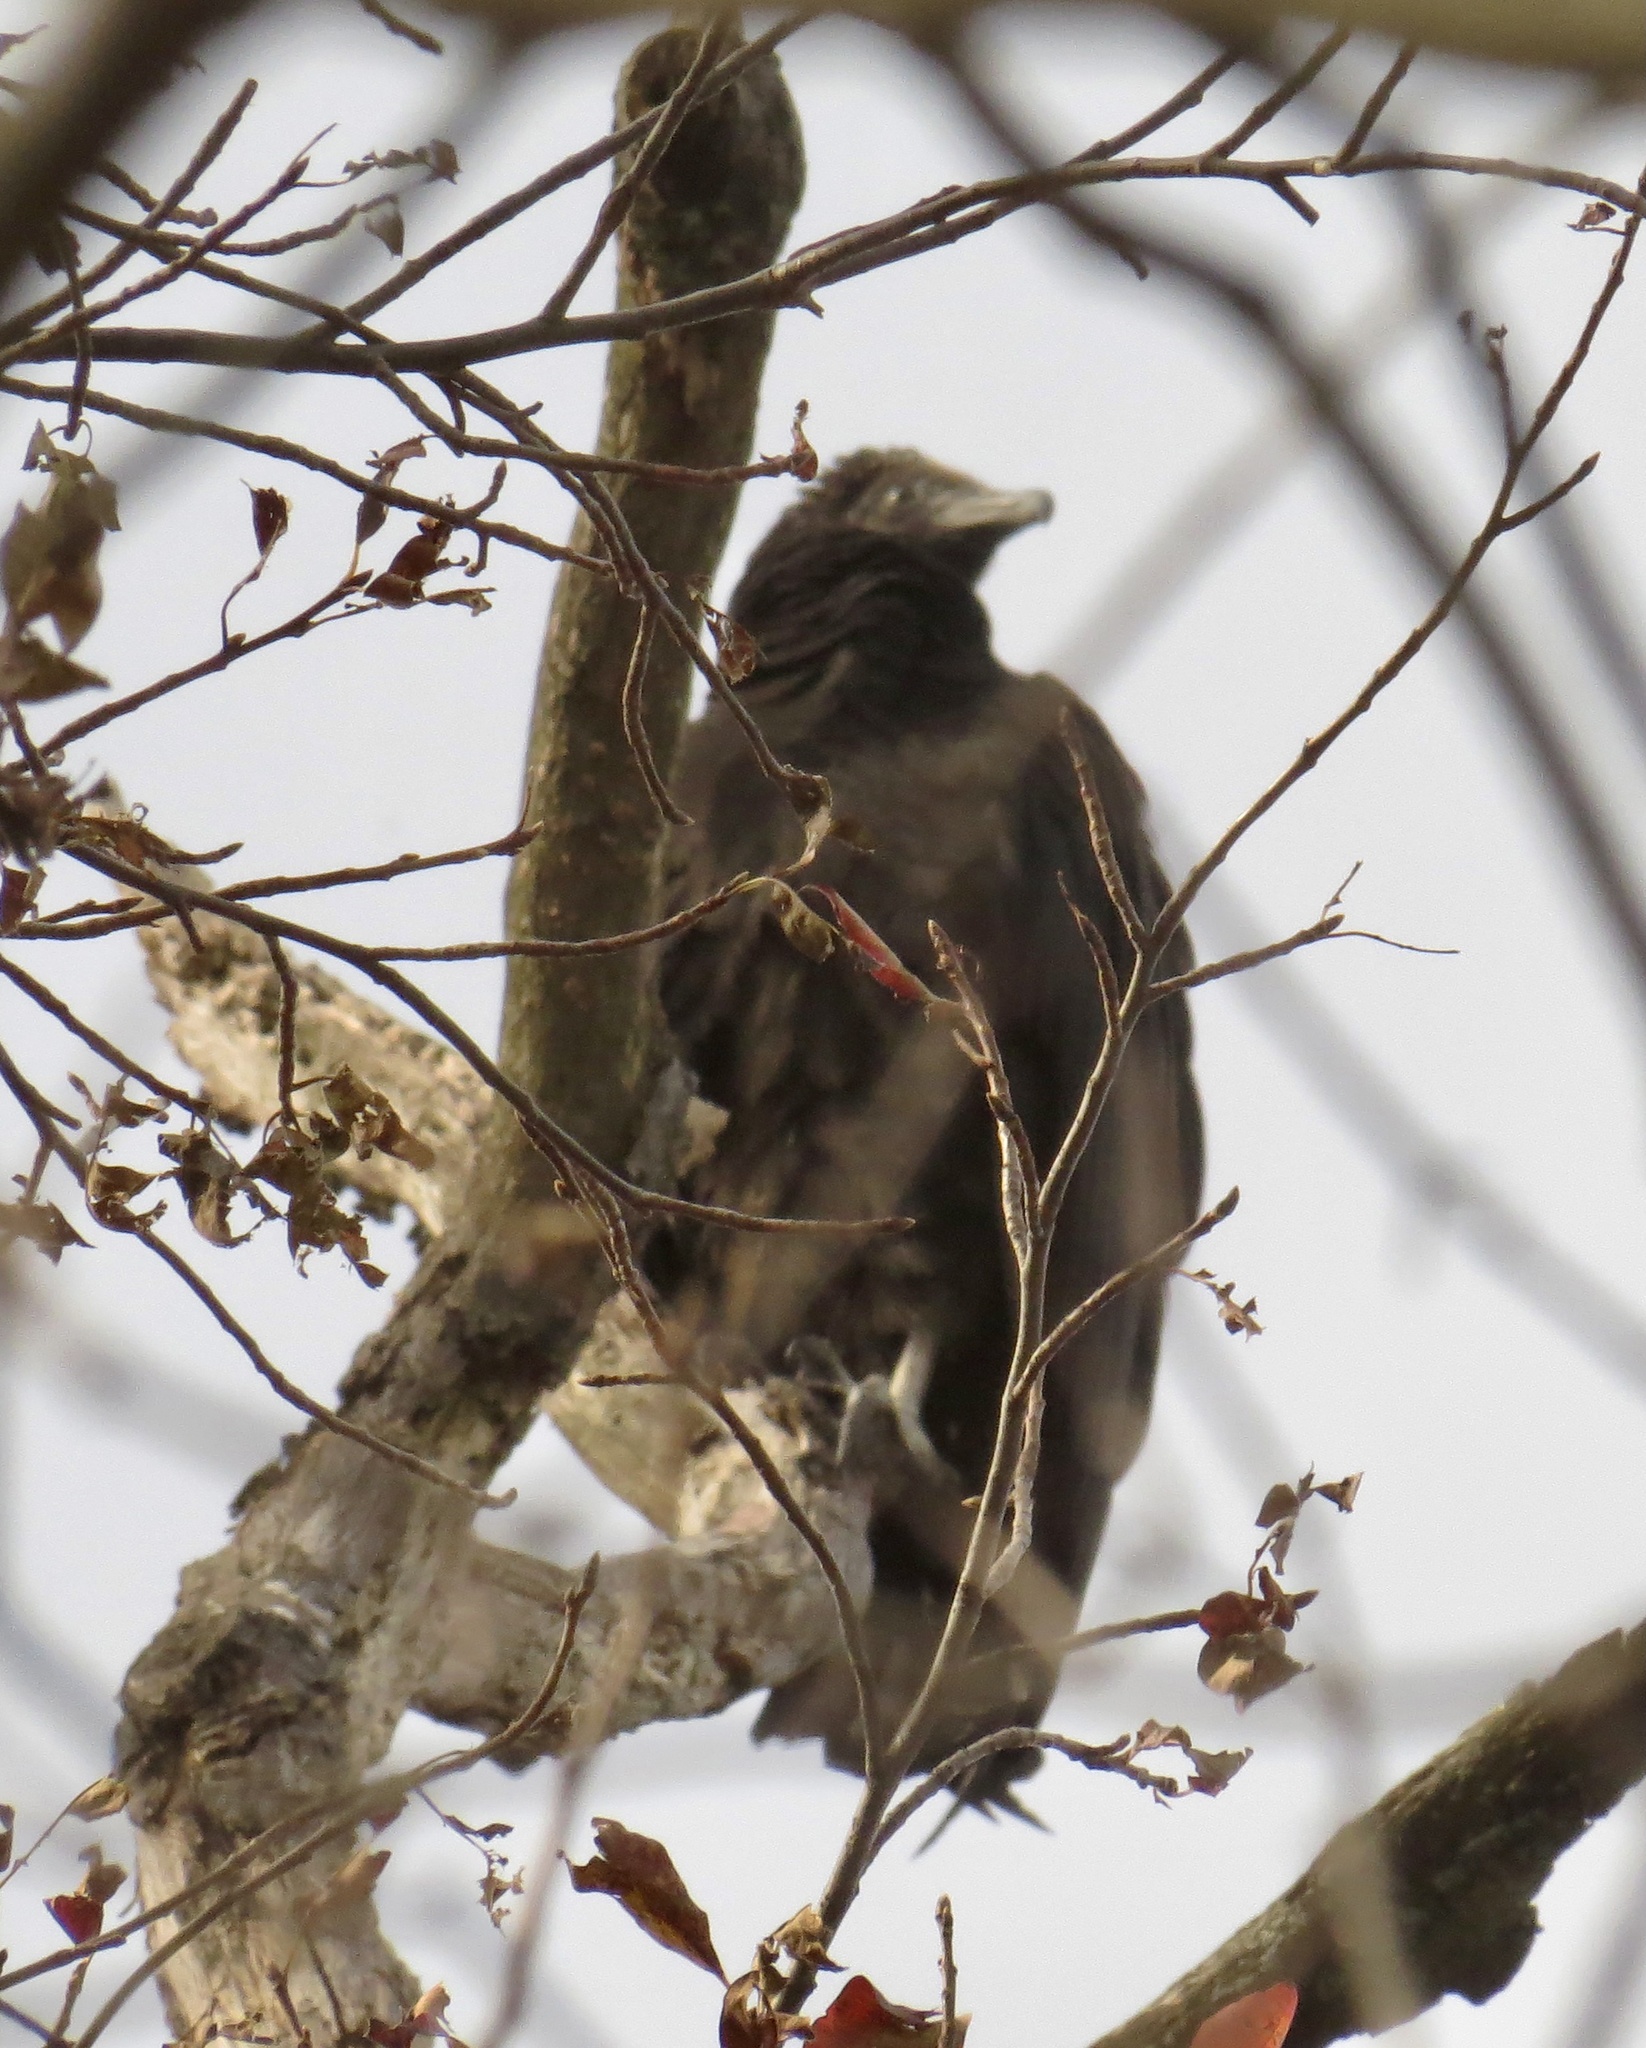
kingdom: Animalia
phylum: Chordata
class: Aves
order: Accipitriformes
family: Cathartidae
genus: Coragyps
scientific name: Coragyps atratus
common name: Black vulture
